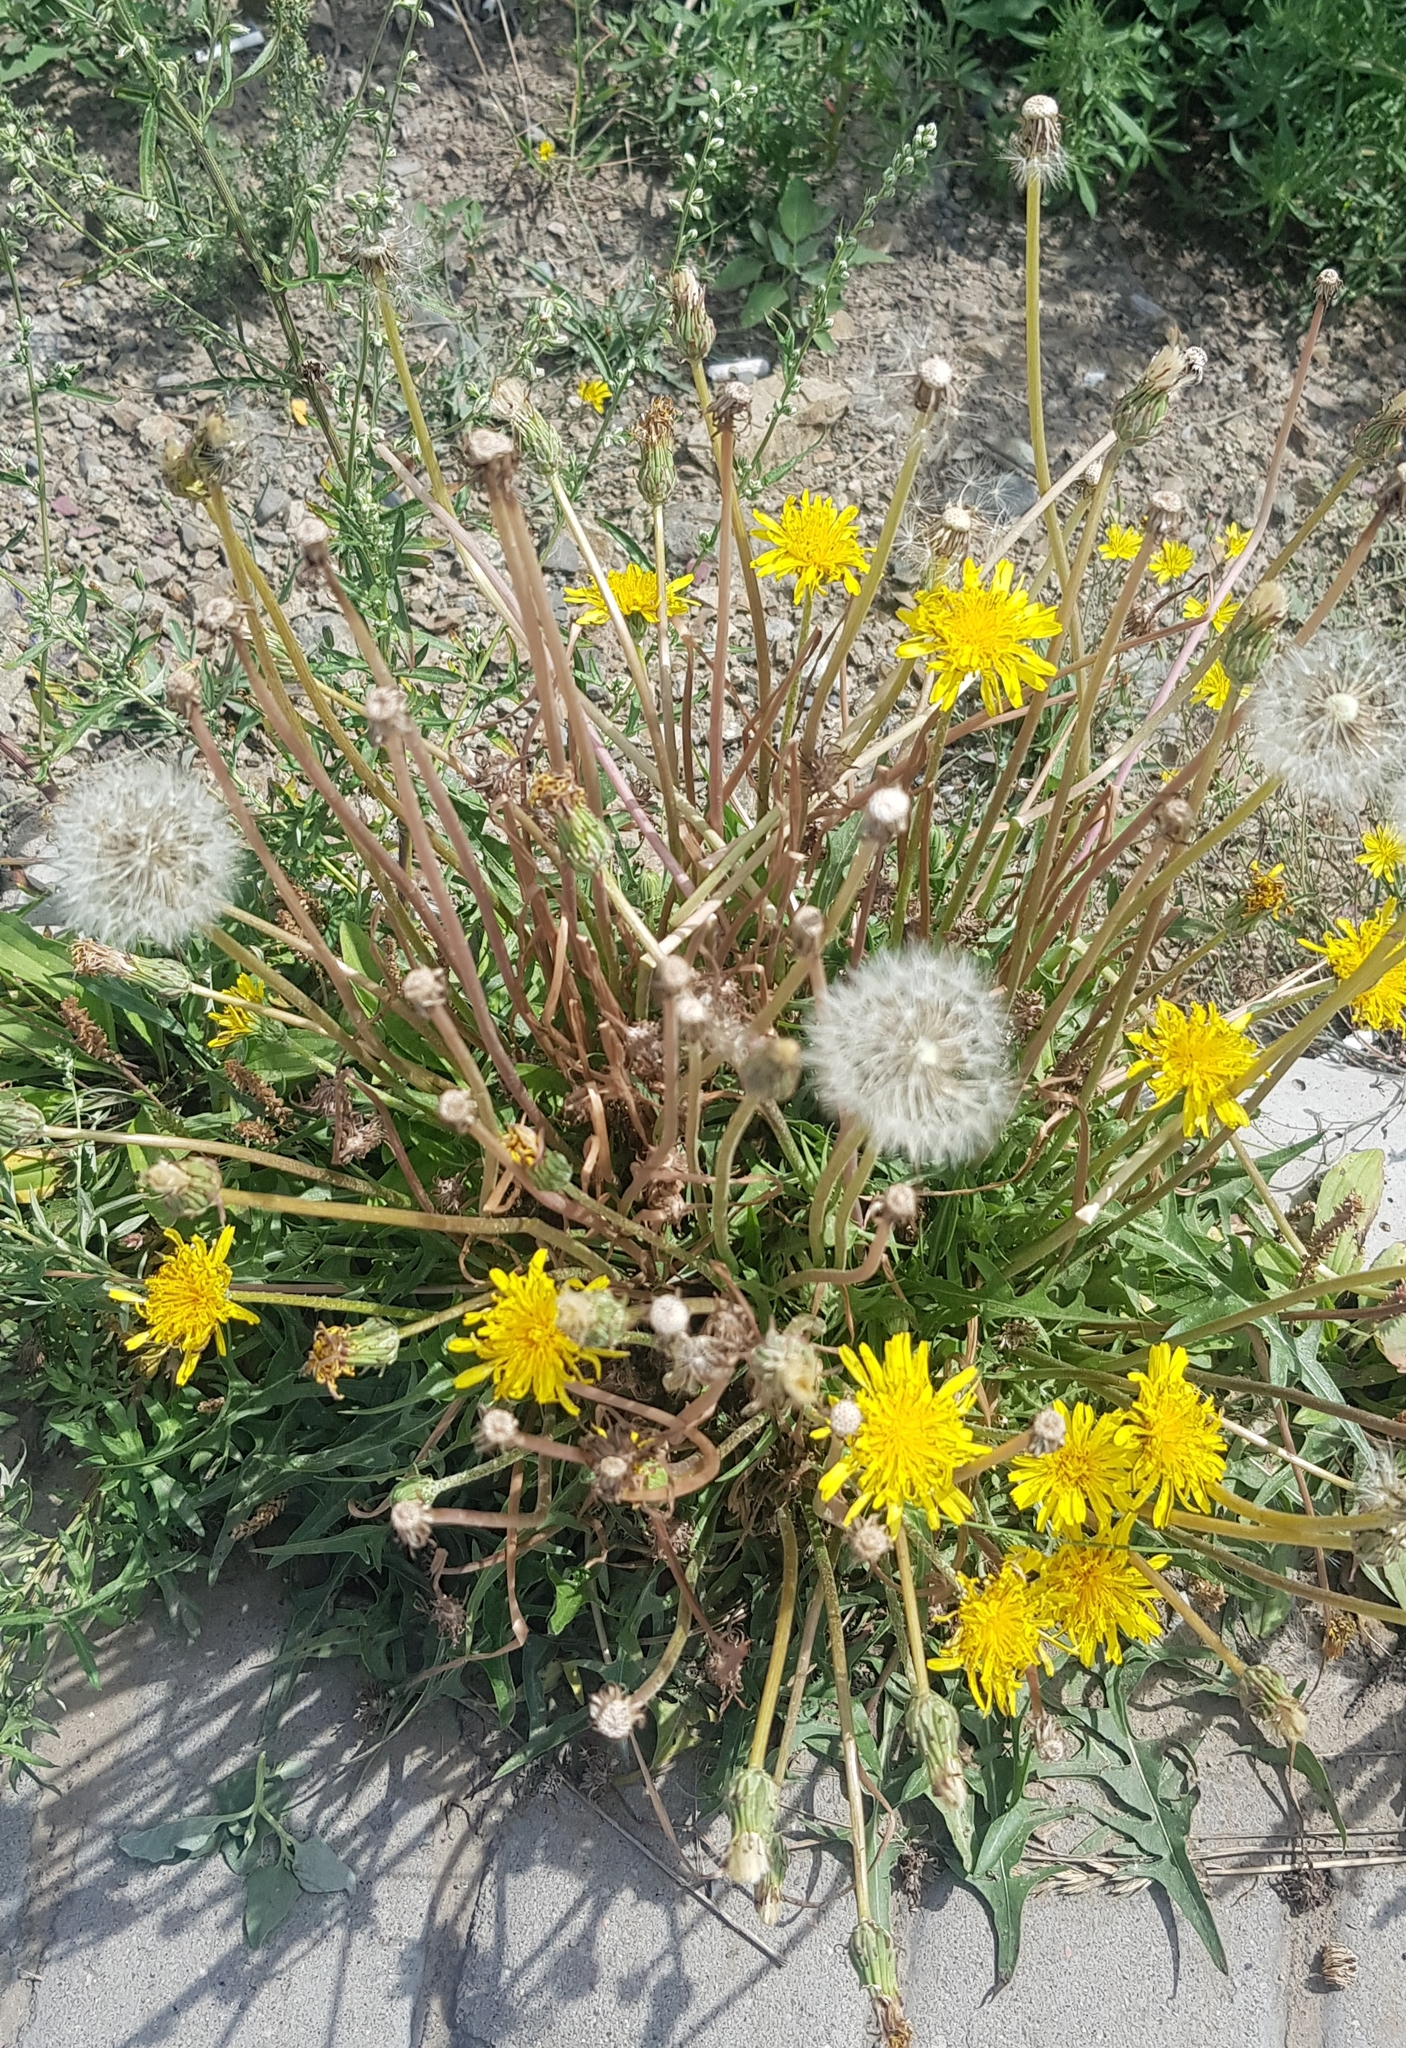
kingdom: Plantae
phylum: Tracheophyta
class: Magnoliopsida
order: Asterales
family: Asteraceae
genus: Taraxacum
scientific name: Taraxacum officinale
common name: Common dandelion
